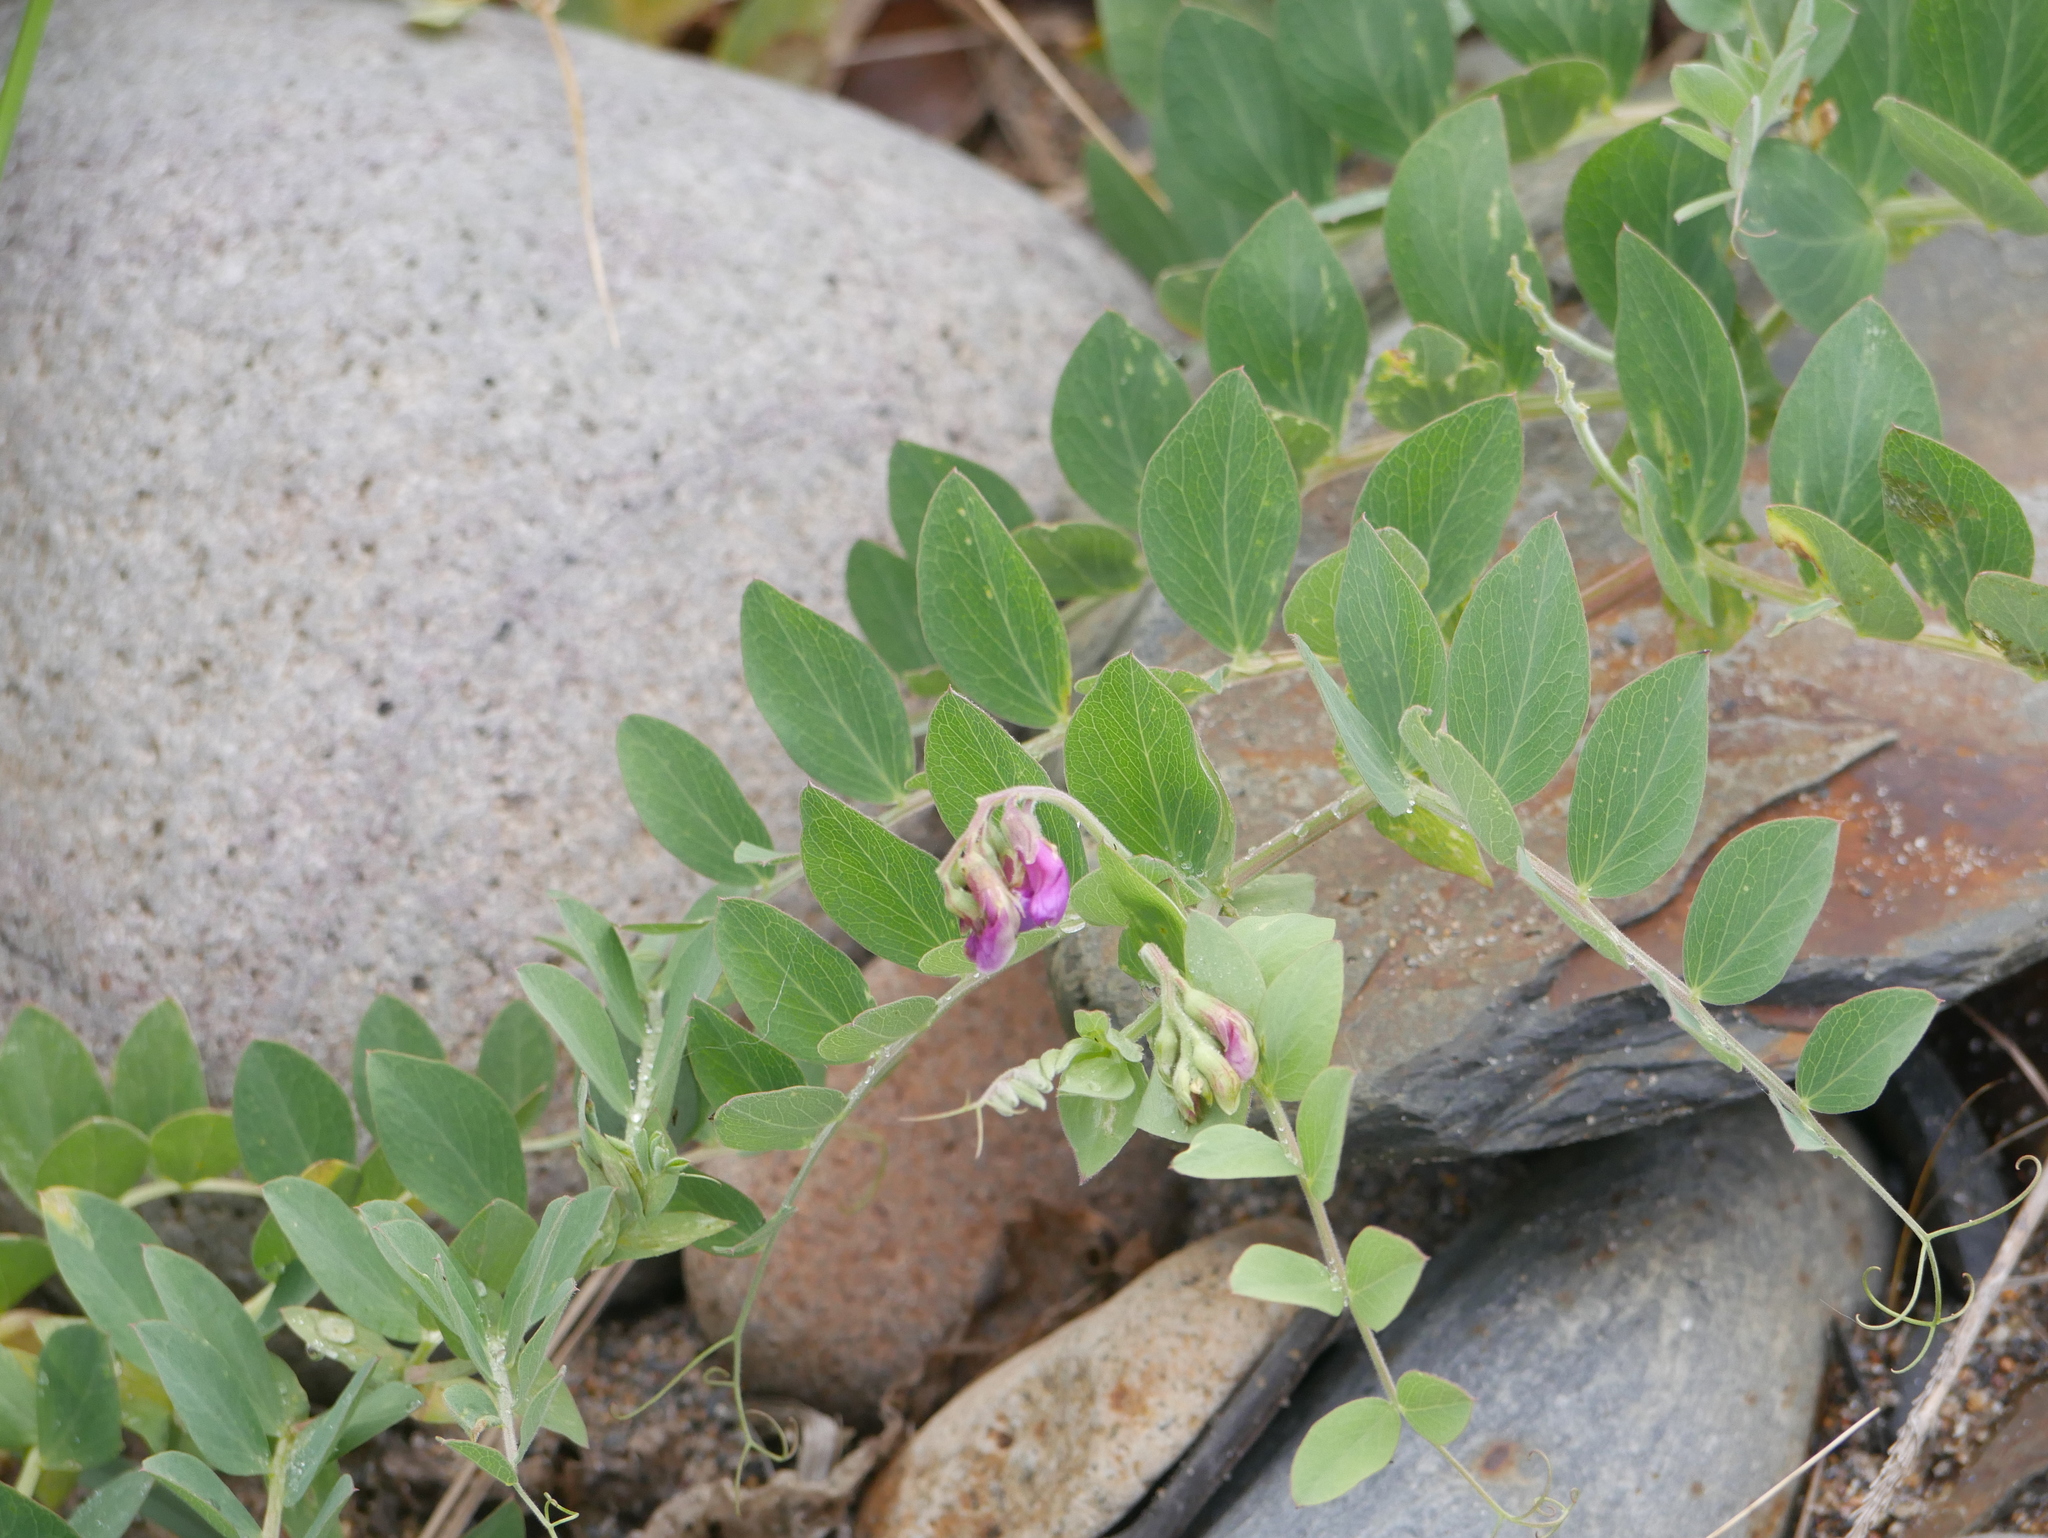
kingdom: Plantae
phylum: Tracheophyta
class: Magnoliopsida
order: Fabales
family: Fabaceae
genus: Lathyrus
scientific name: Lathyrus japonicus
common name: Sea pea
